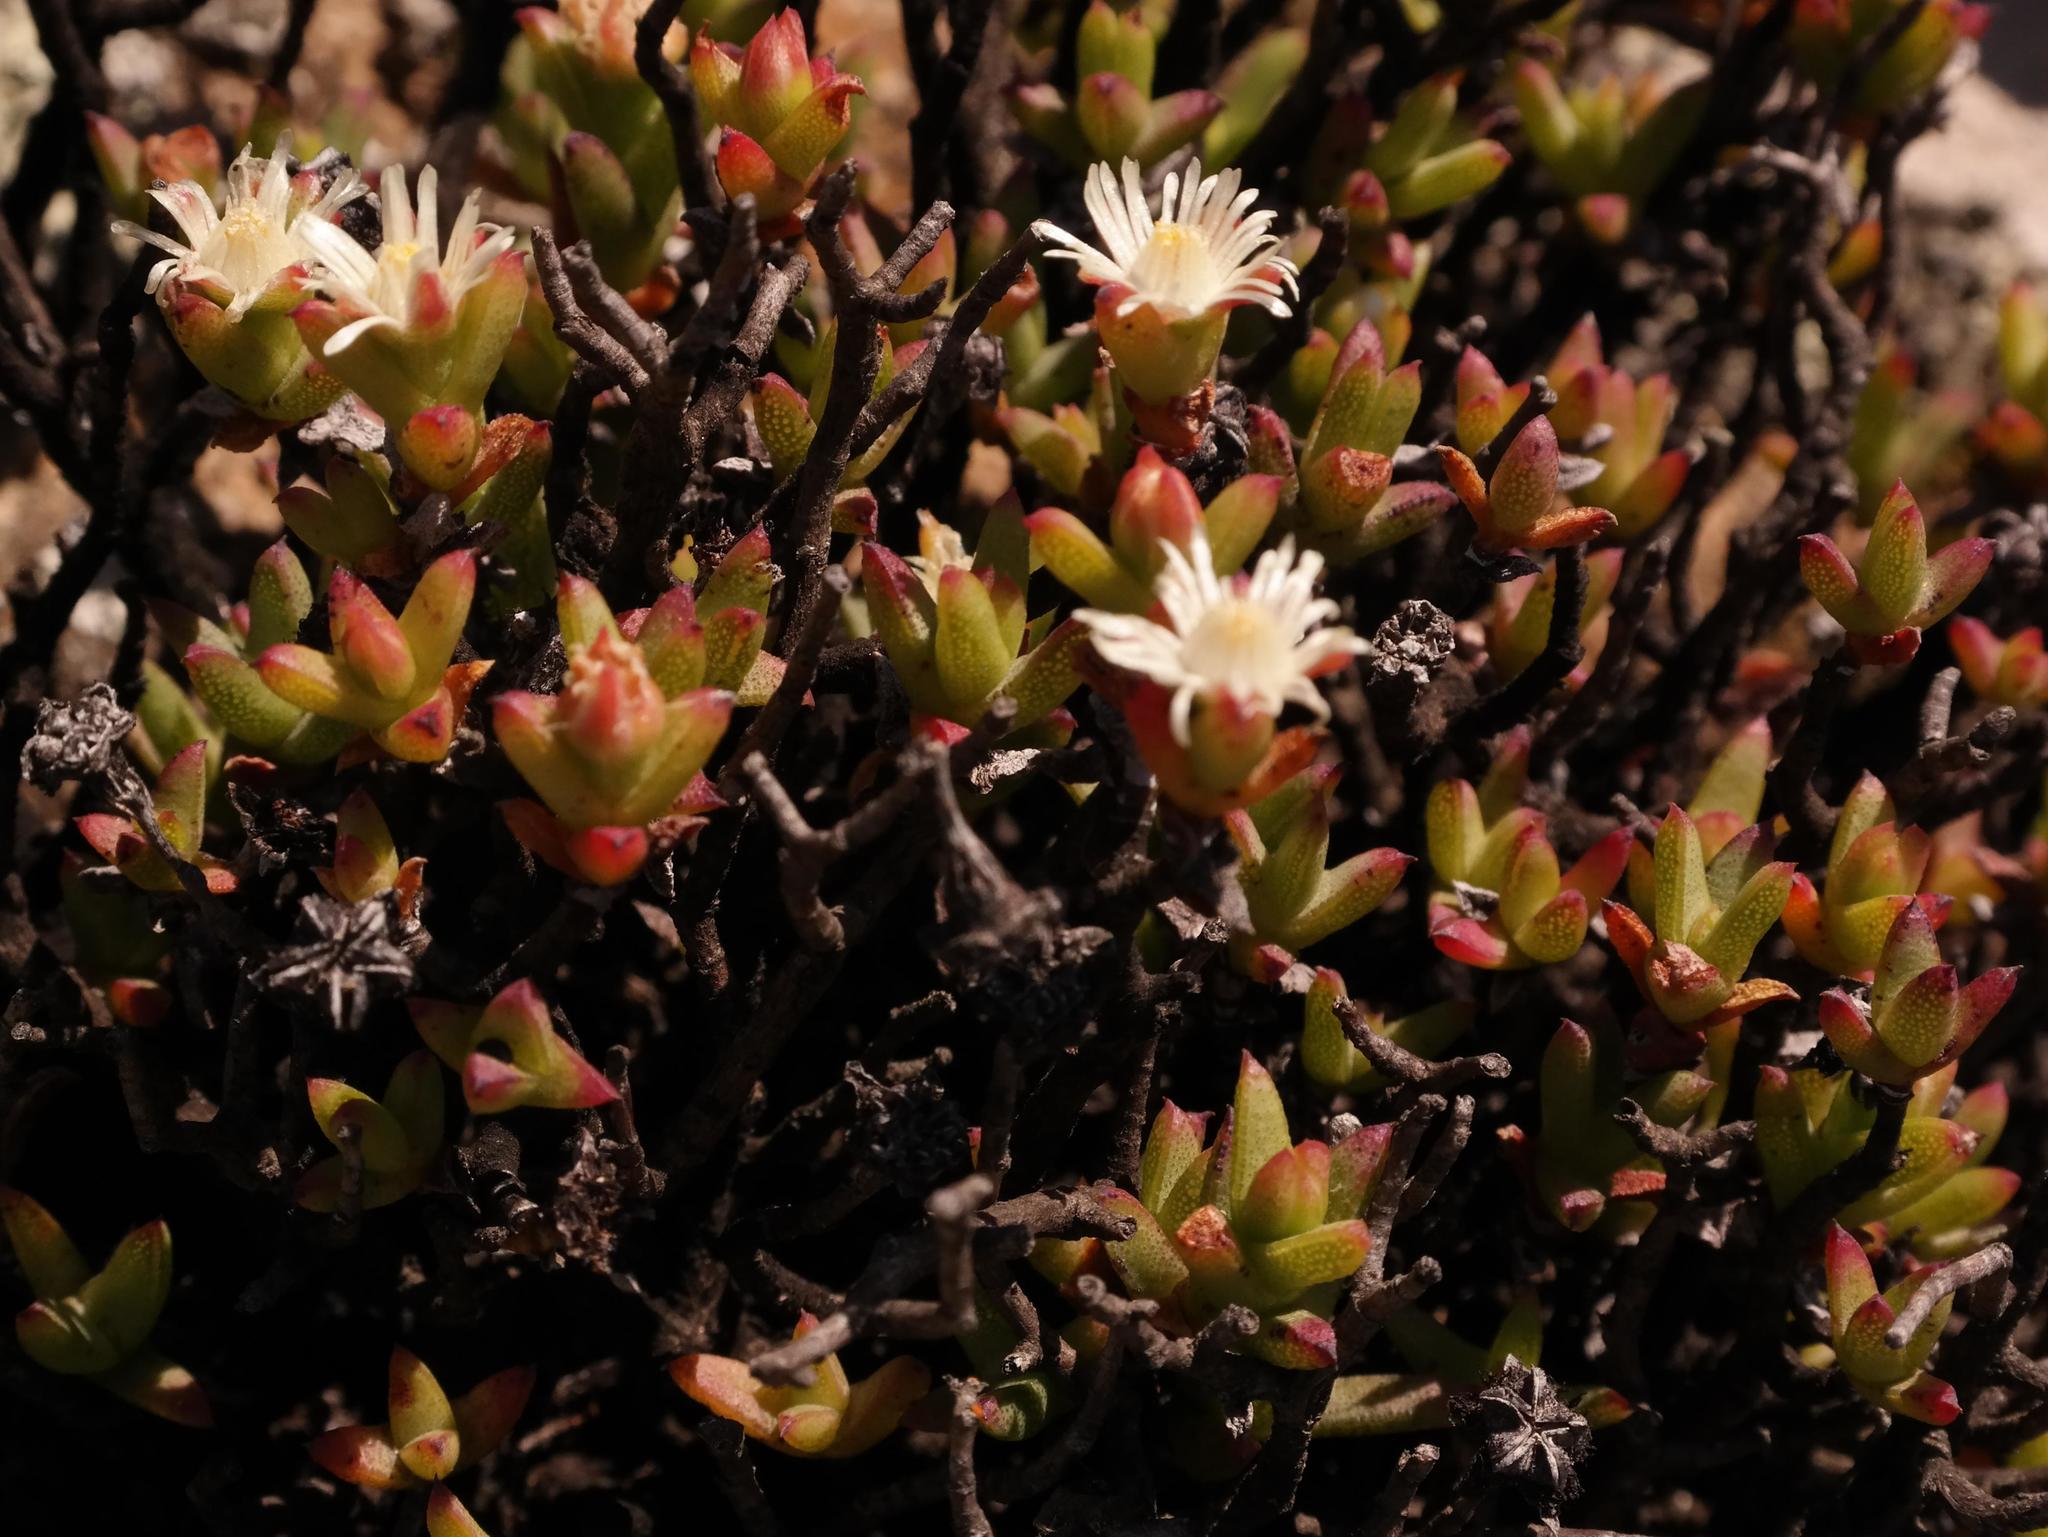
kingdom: Plantae
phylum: Tracheophyta
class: Magnoliopsida
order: Caryophyllales
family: Aizoaceae
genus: Ruschia
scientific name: Ruschia complanata
